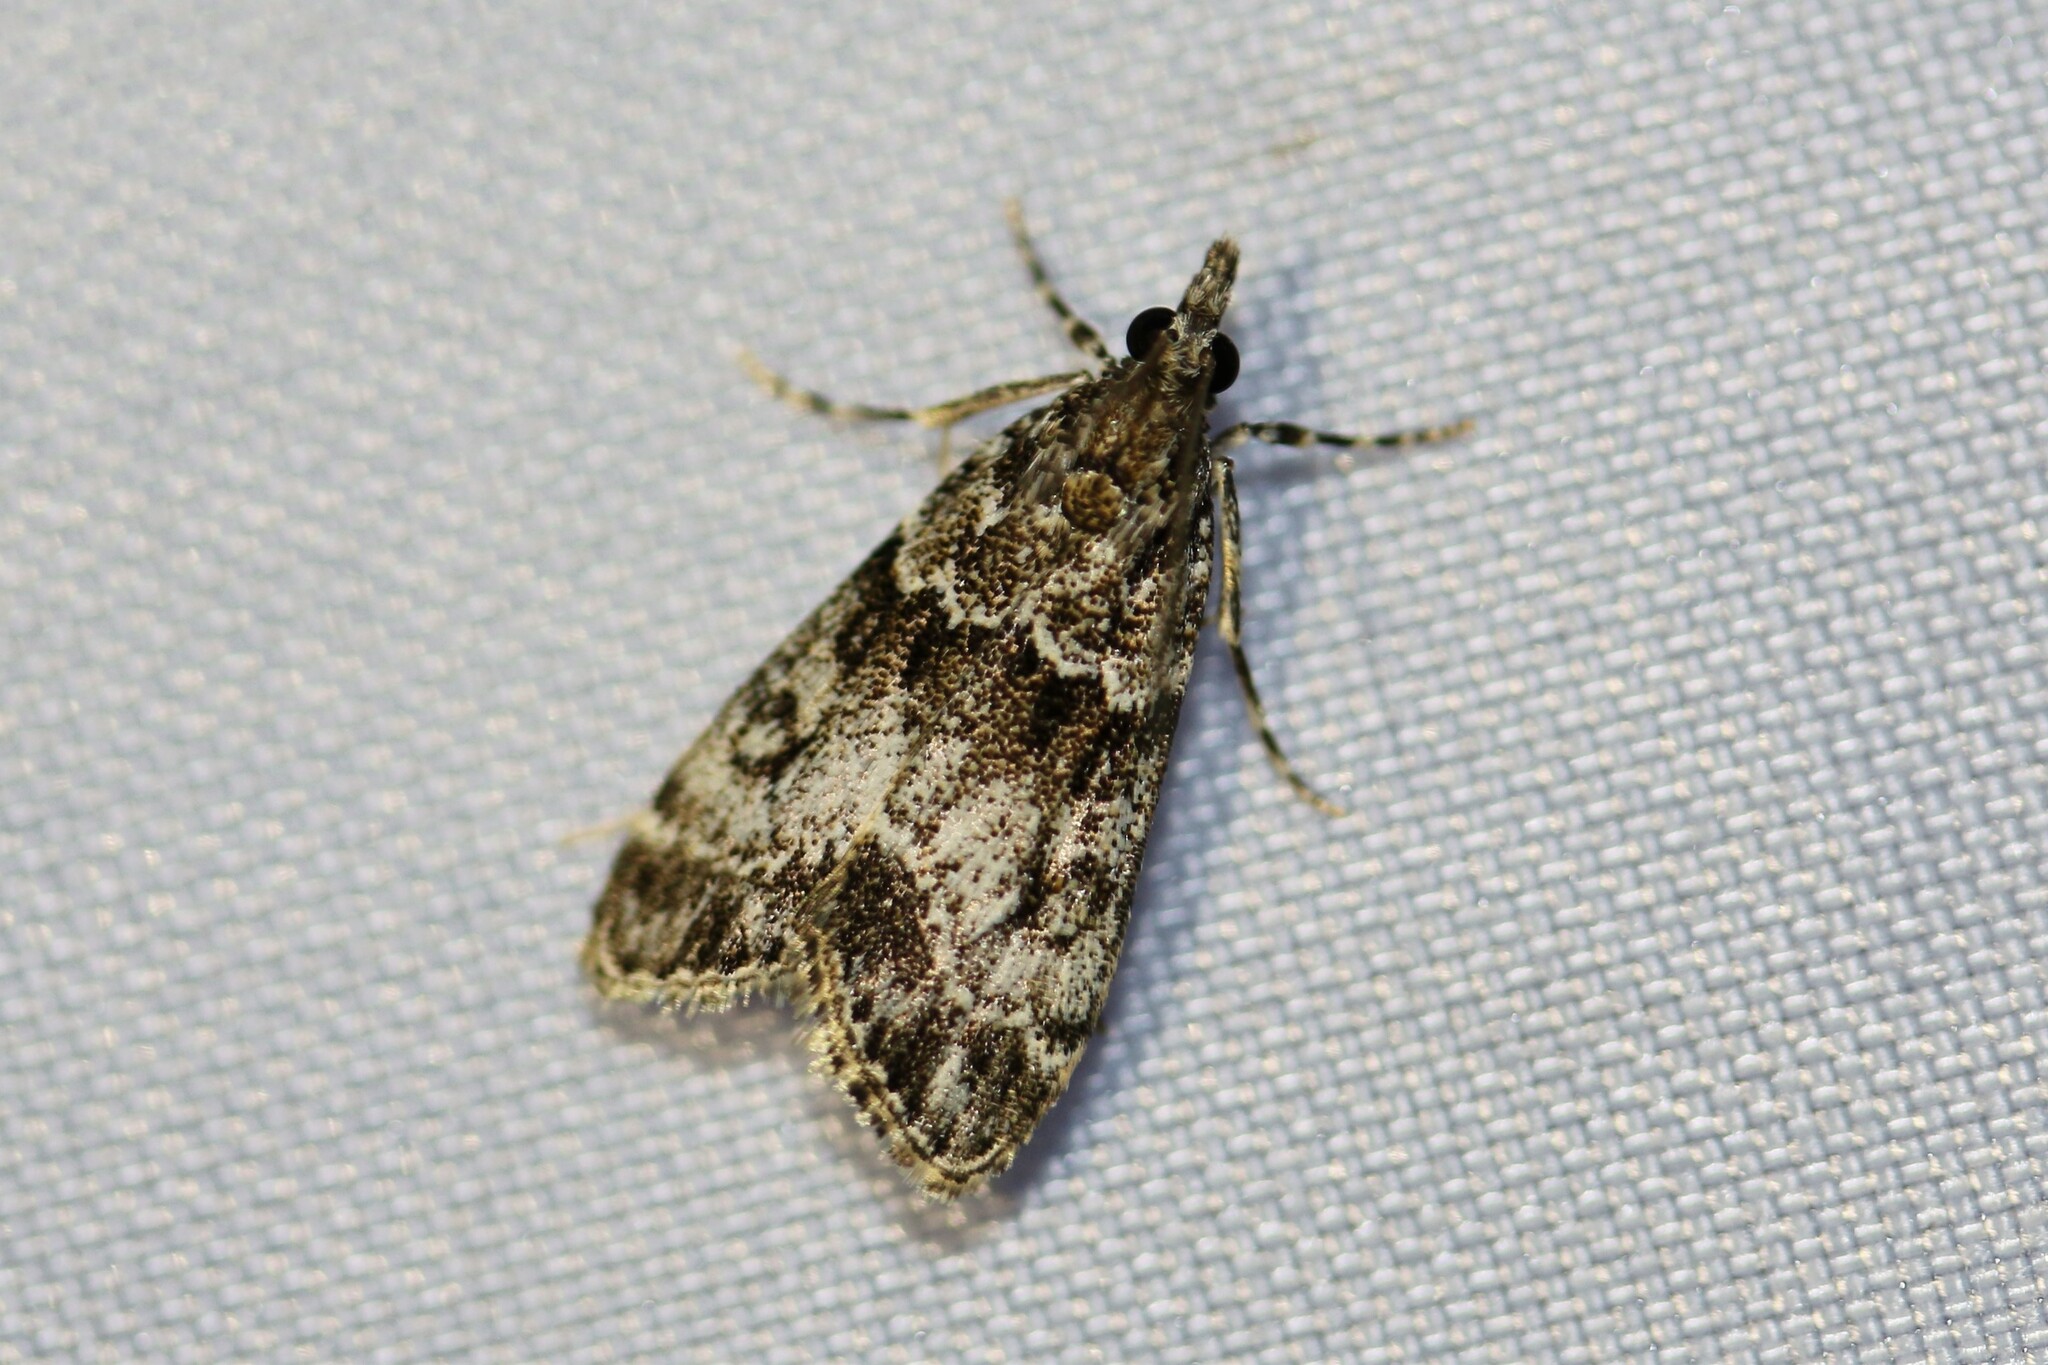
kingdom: Animalia
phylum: Arthropoda
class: Insecta
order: Lepidoptera
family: Crambidae
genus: Eudonia
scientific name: Eudonia mercurella
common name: Small grey
